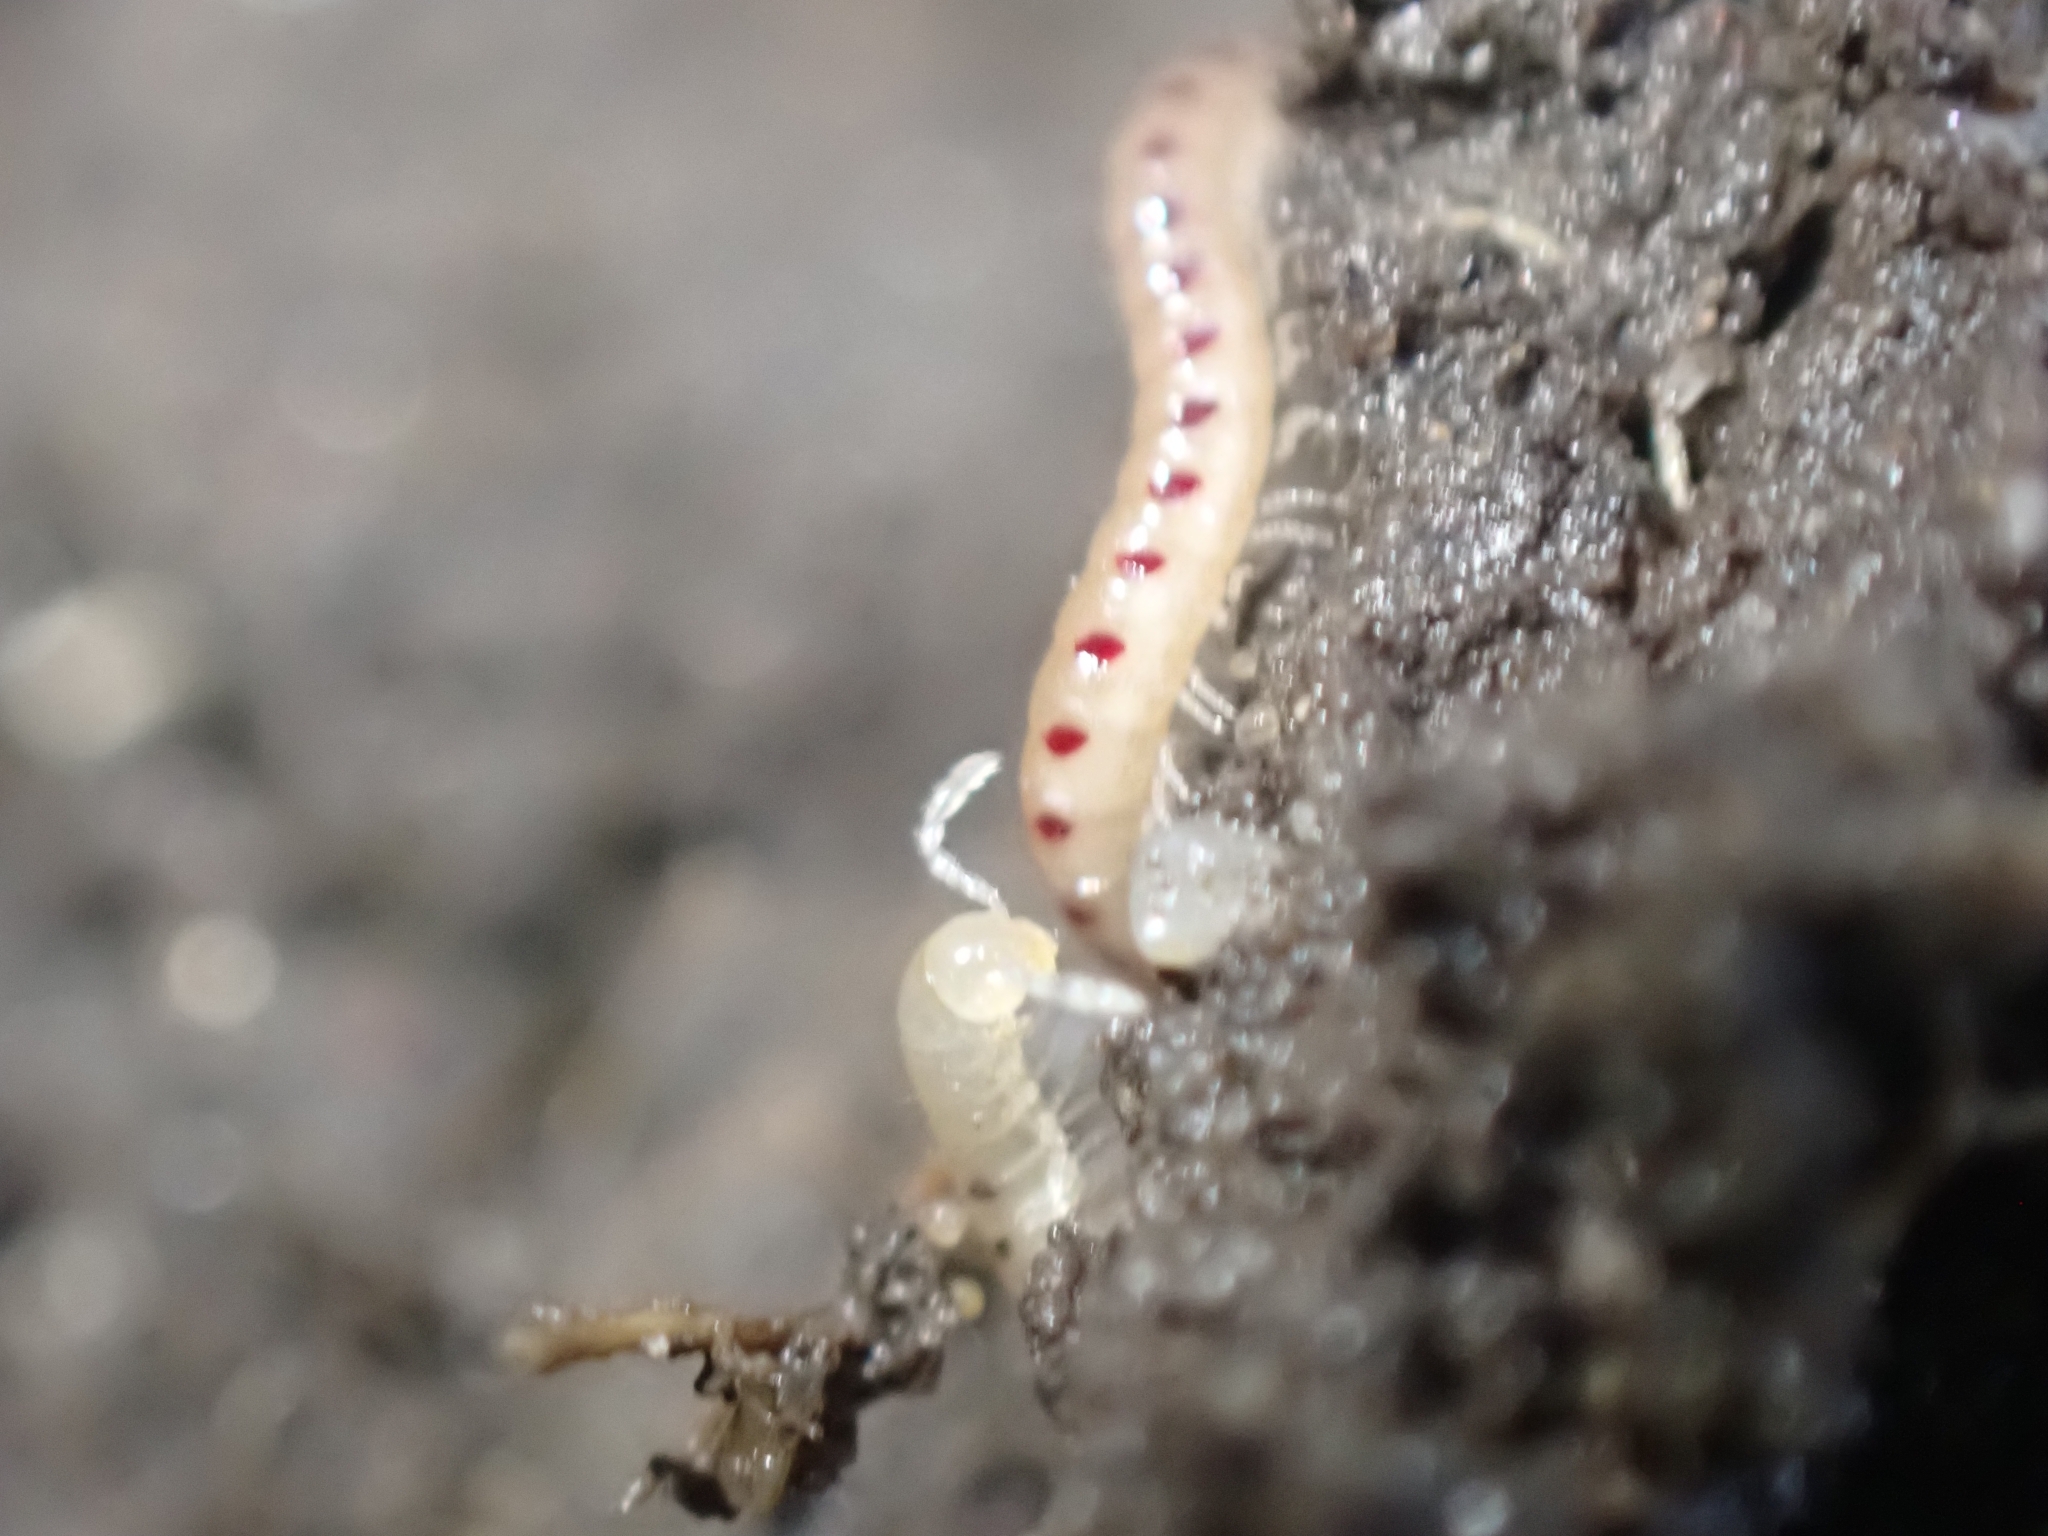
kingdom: Animalia
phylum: Arthropoda
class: Diplopoda
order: Julida
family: Blaniulidae
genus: Blaniulus
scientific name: Blaniulus guttulatus
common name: Spotted snake millipede
